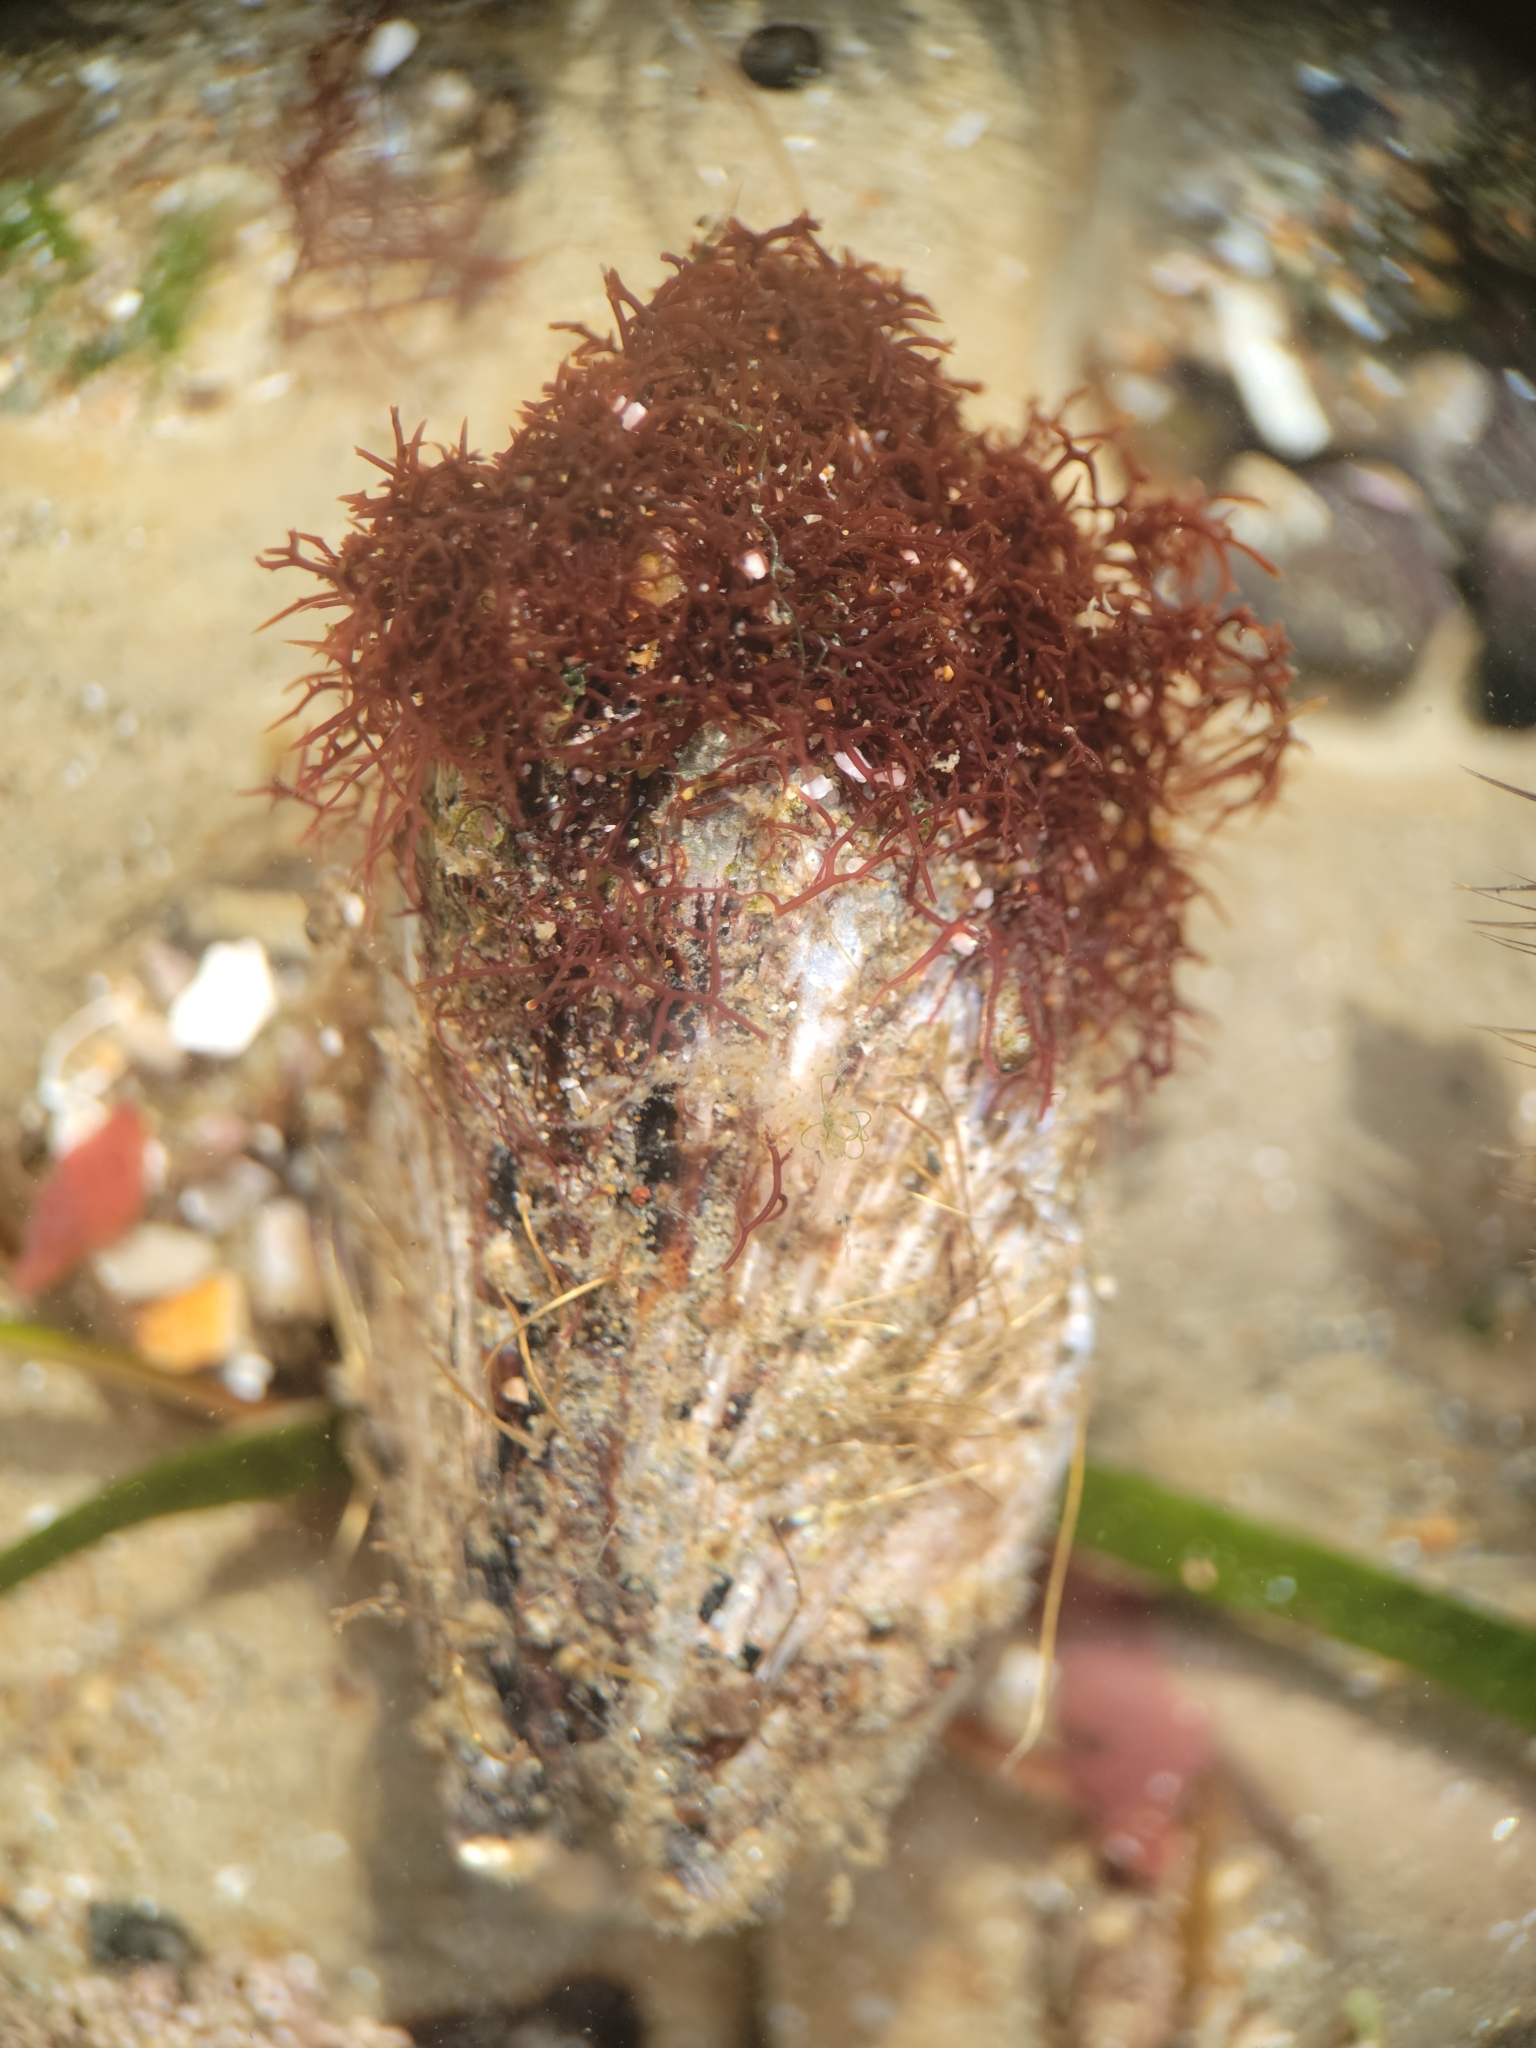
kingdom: Plantae
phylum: Rhodophyta
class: Florideophyceae
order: Gigartinales
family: Caulacanthaceae
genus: Caulacanthus
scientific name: Caulacanthus ustulatus
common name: Red algae
